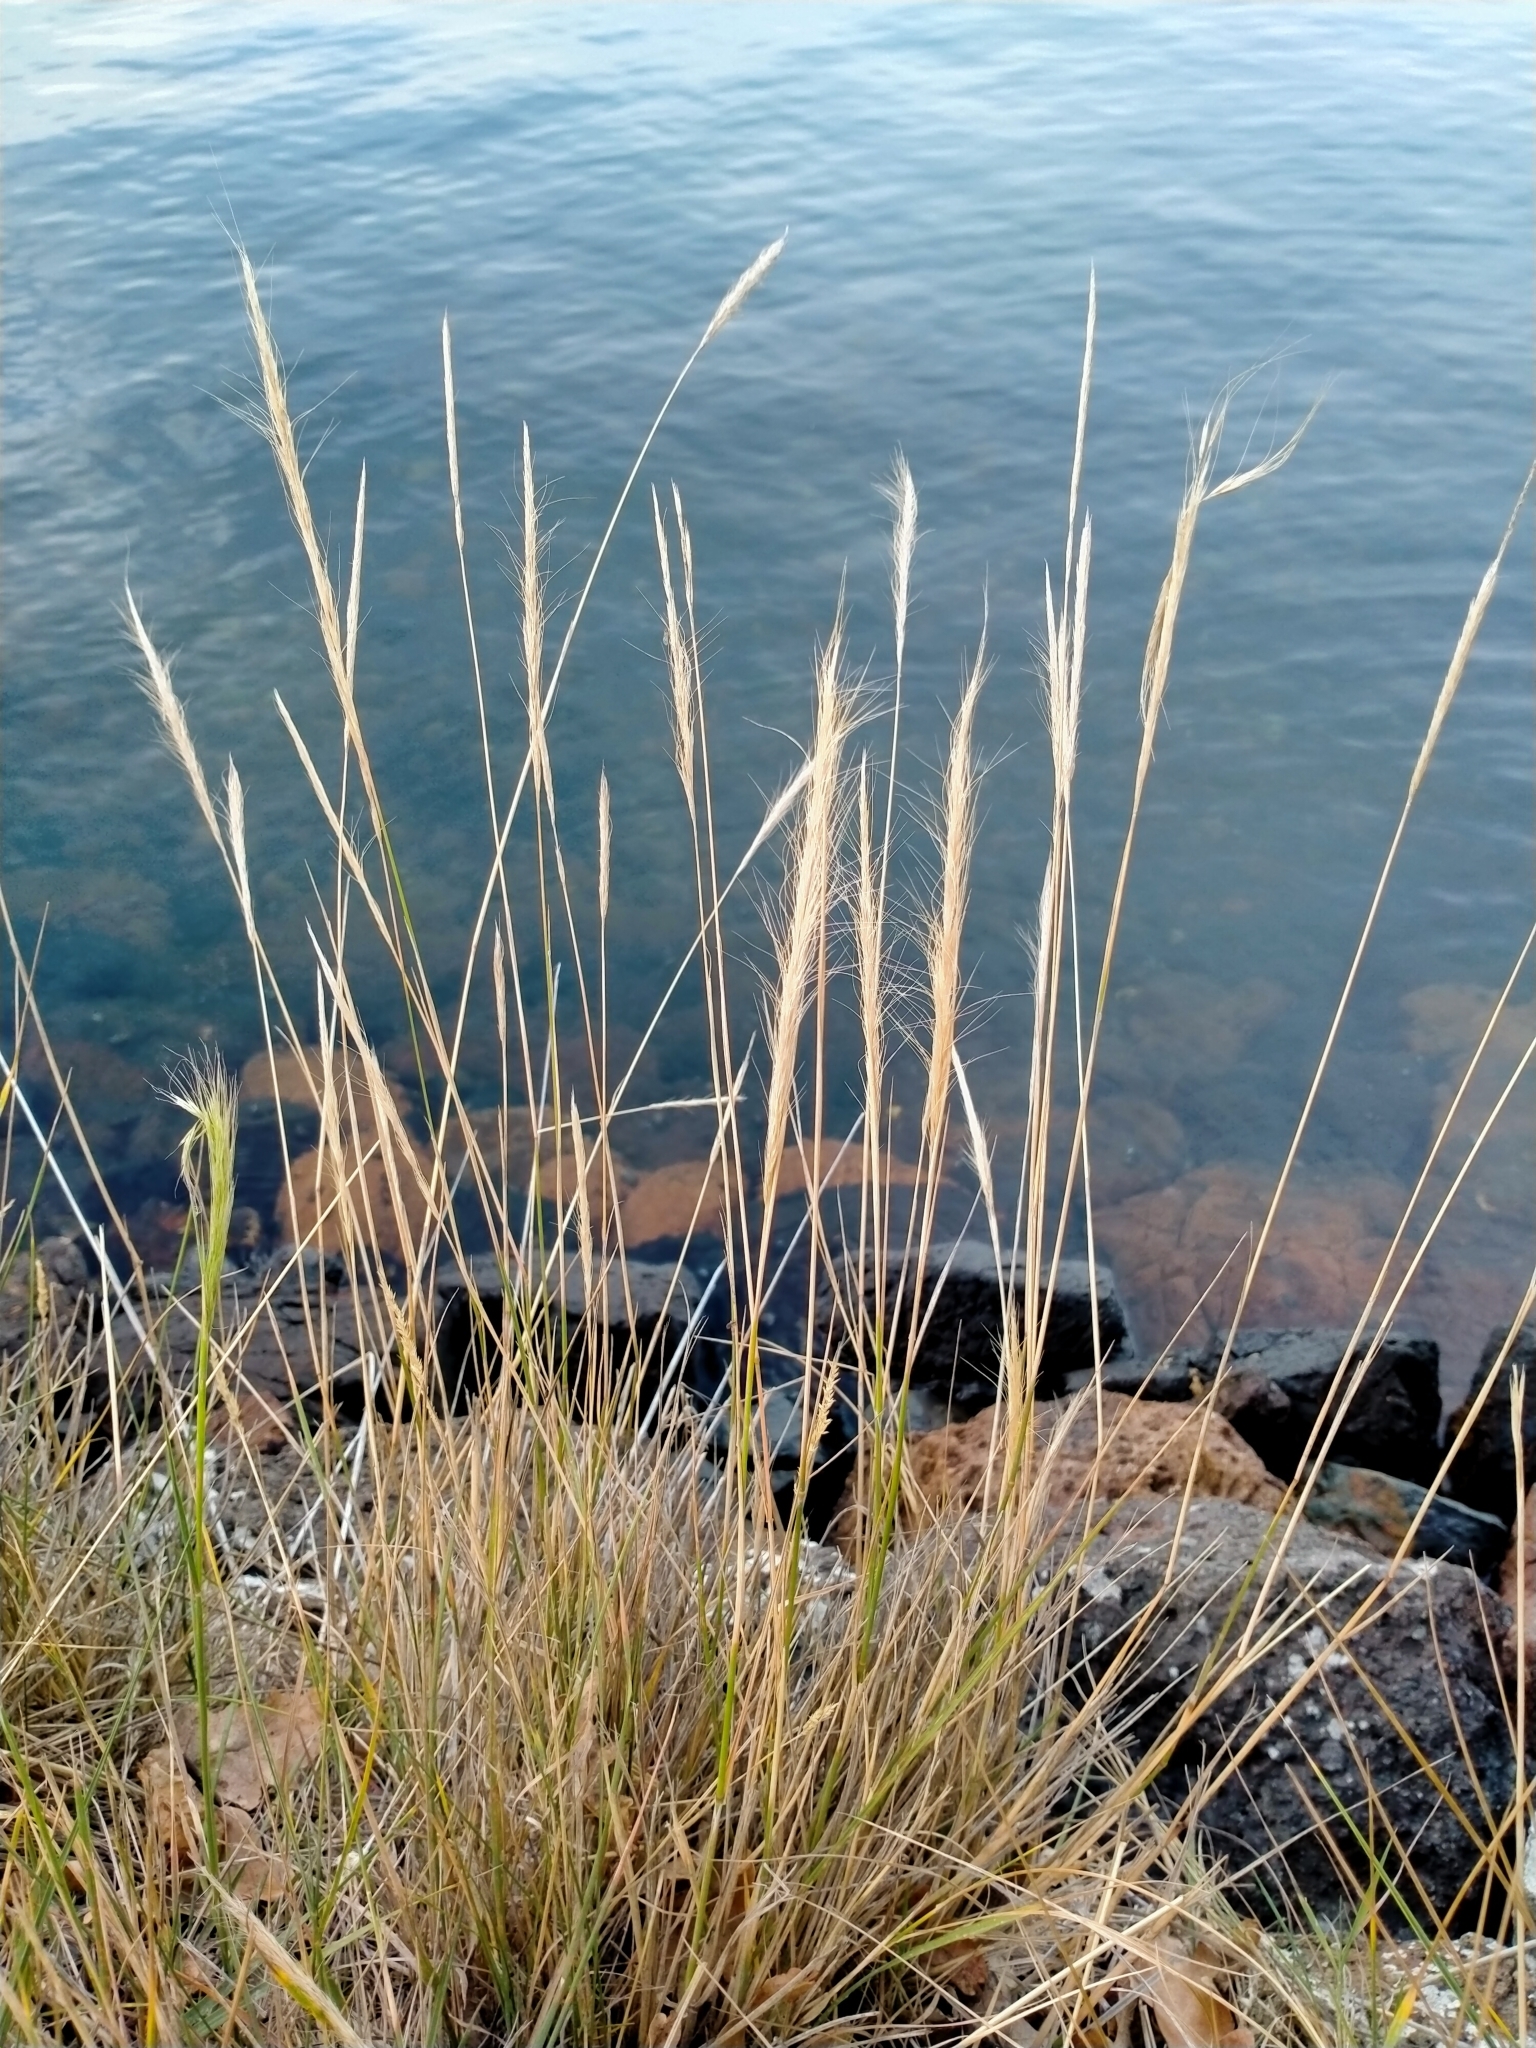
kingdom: Plantae
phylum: Tracheophyta
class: Liliopsida
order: Poales
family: Poaceae
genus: Dichelachne
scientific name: Dichelachne crinita
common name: Clovenfoot plumegrass
